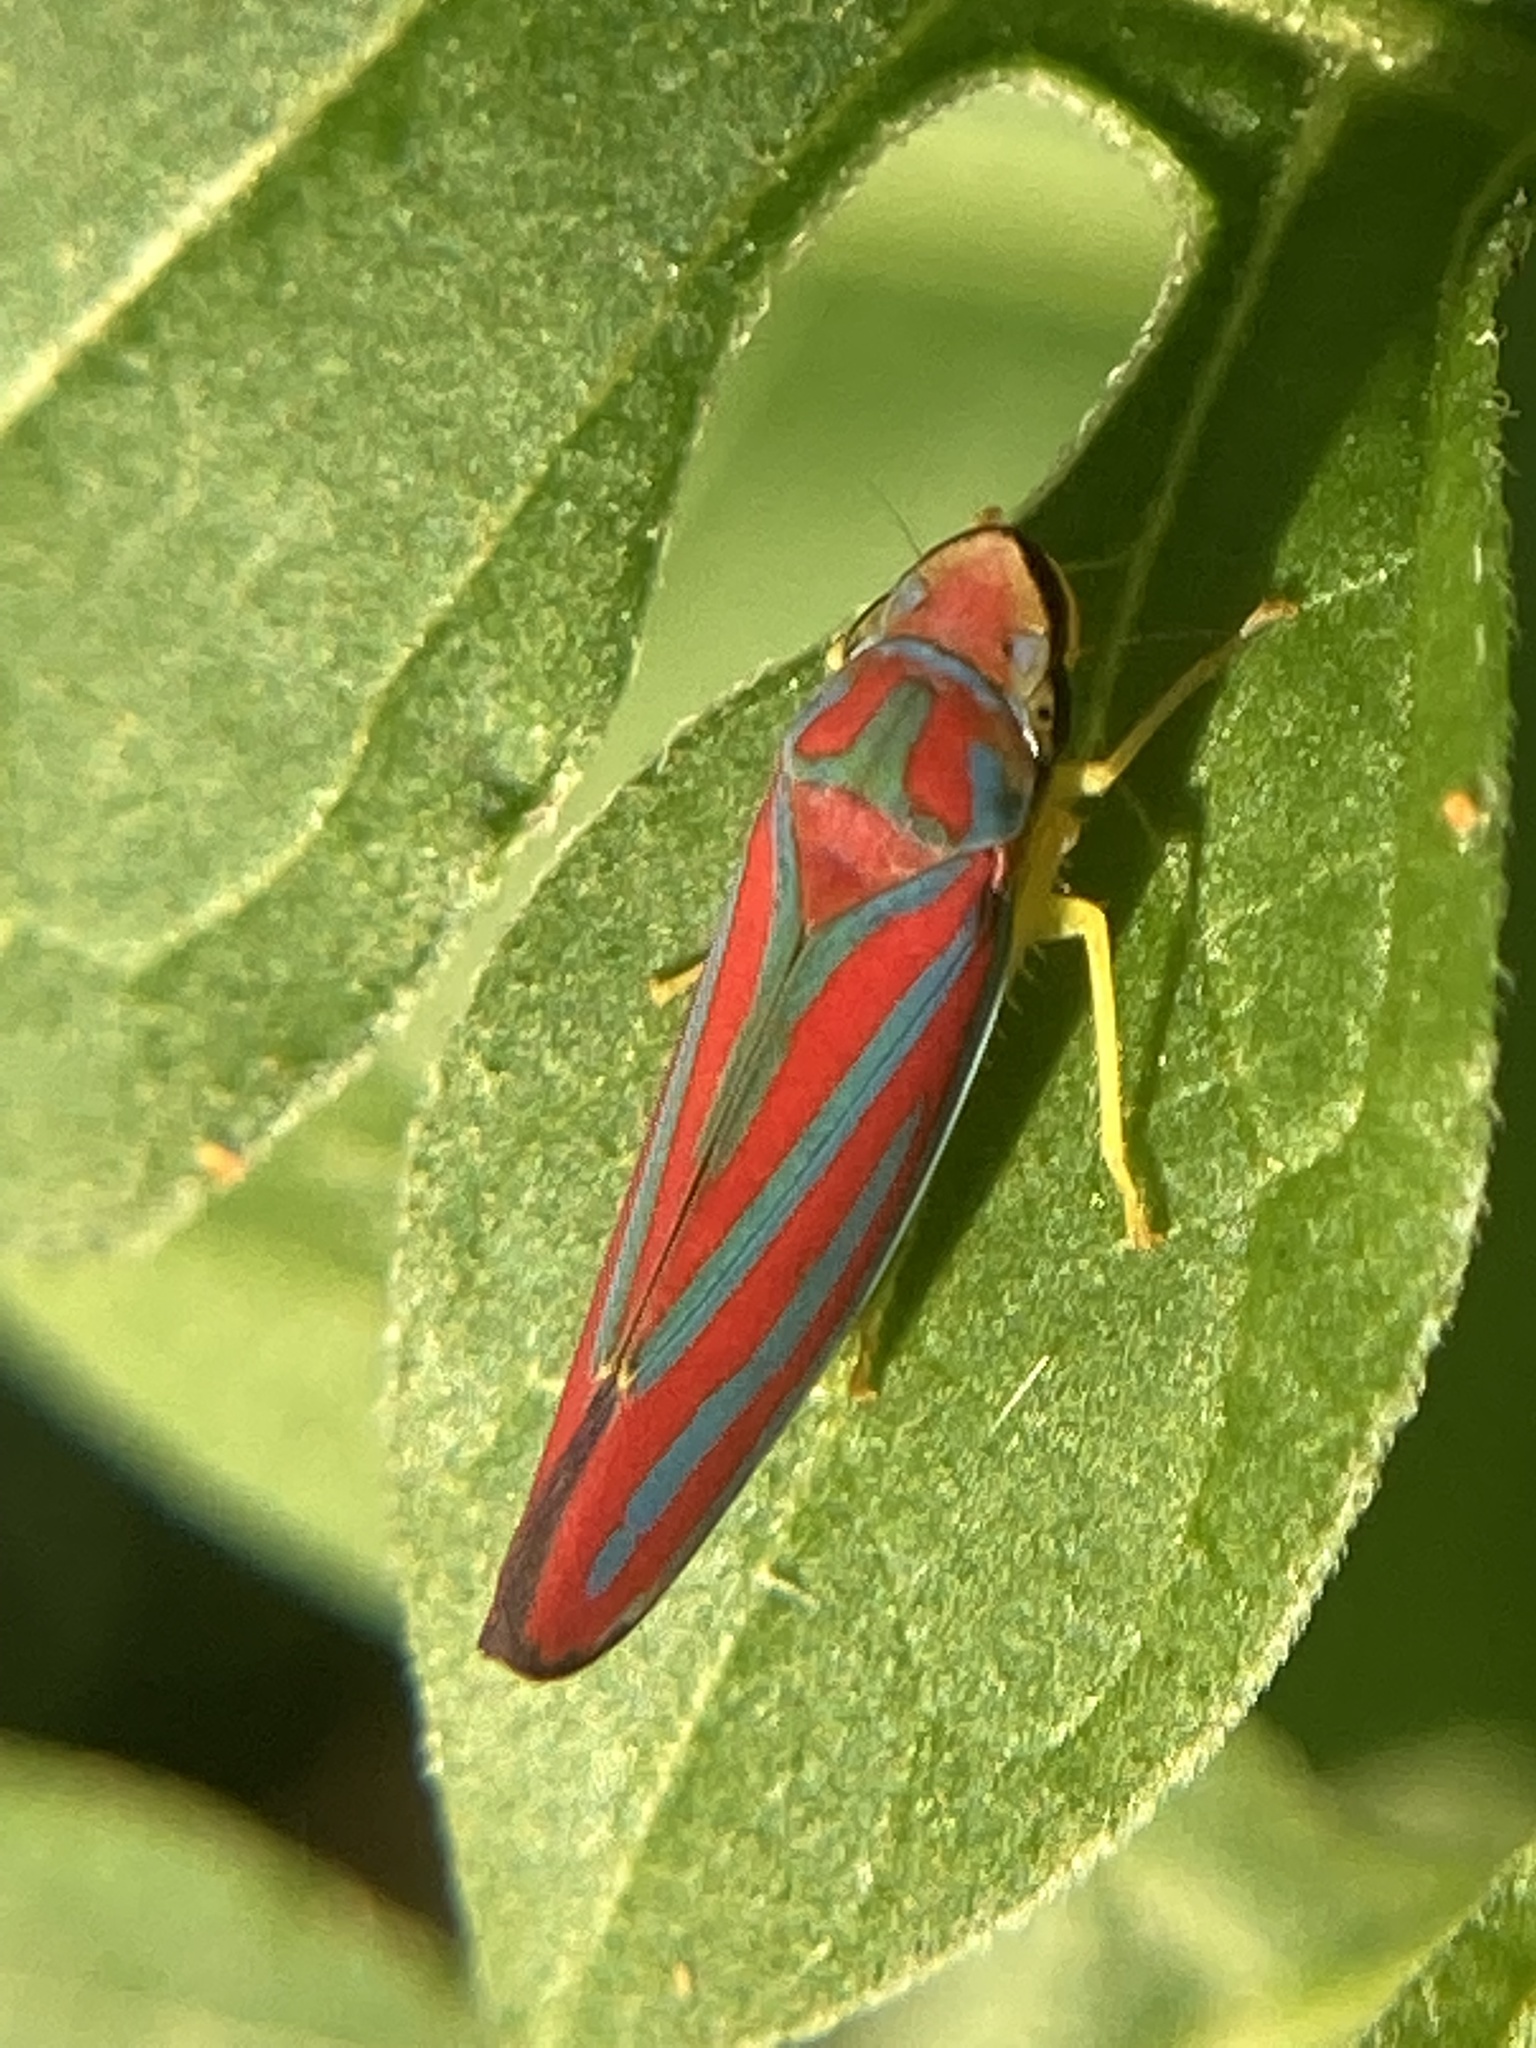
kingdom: Animalia
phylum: Arthropoda
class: Insecta
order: Hemiptera
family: Cicadellidae
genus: Graphocephala
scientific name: Graphocephala coccinea
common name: Candy-striped leafhopper
